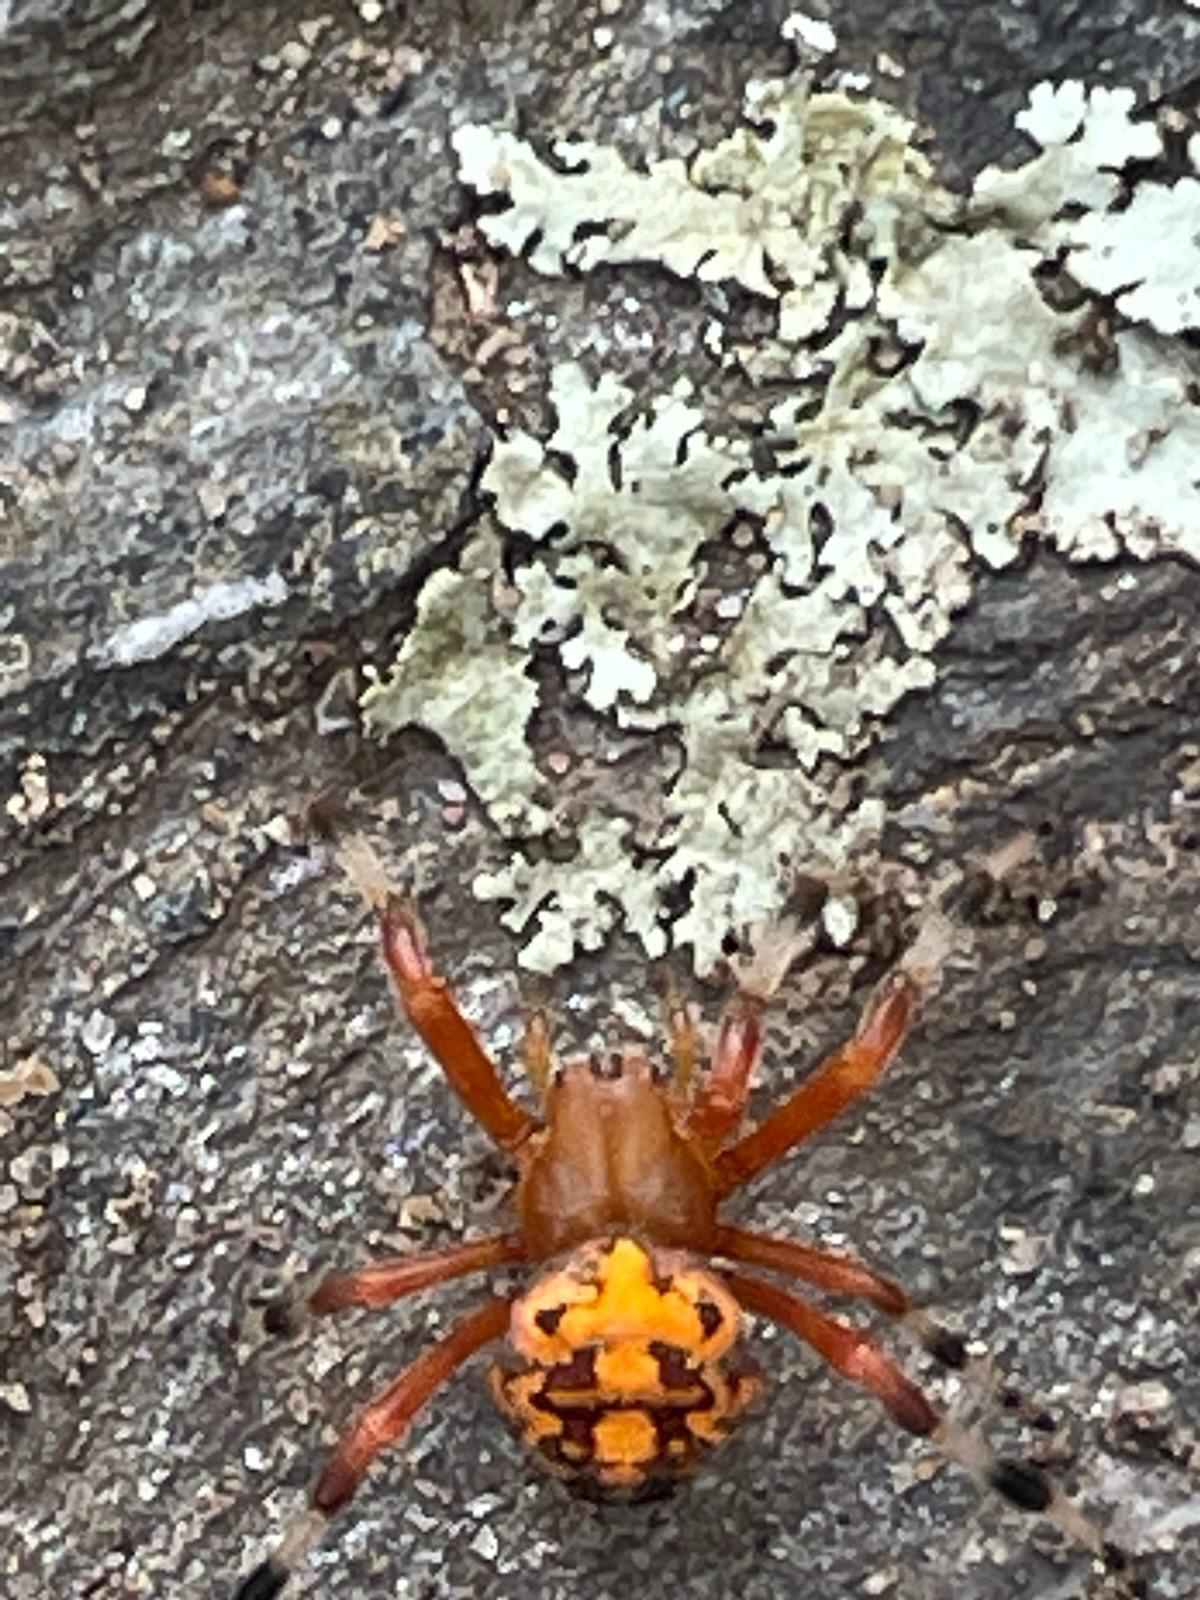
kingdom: Animalia
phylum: Arthropoda
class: Arachnida
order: Araneae
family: Araneidae
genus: Araneus
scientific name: Araneus marmoreus
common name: Marbled orbweaver
